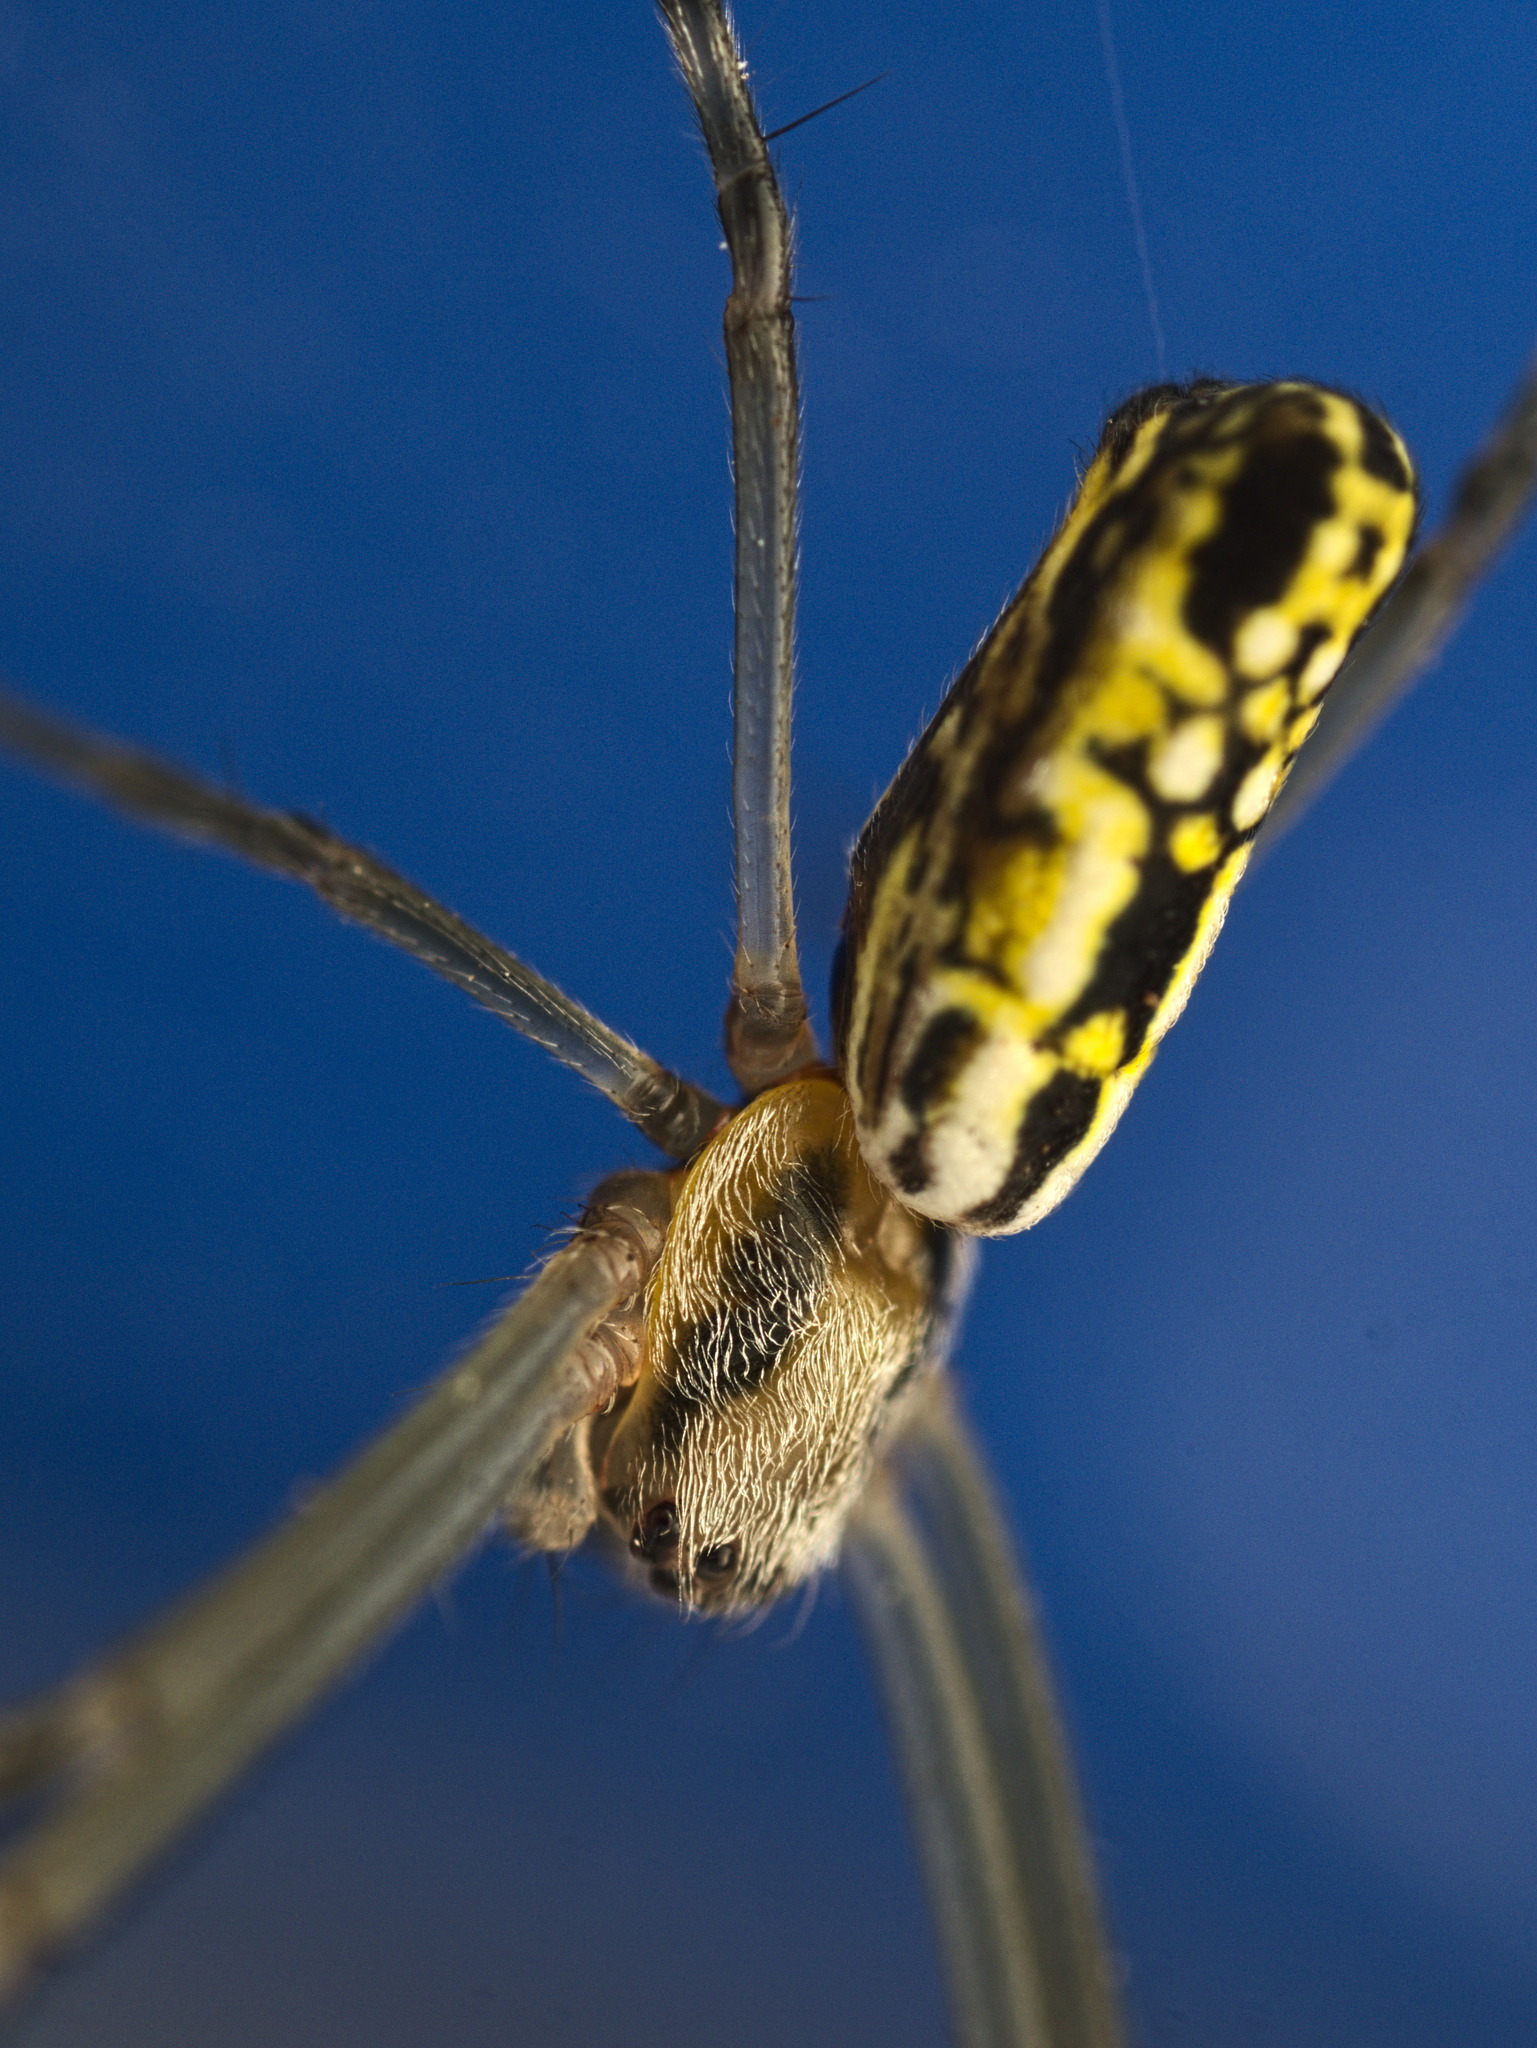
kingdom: Animalia
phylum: Arthropoda
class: Arachnida
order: Araneae
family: Araneidae
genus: Trichonephila
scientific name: Trichonephila clavipes
